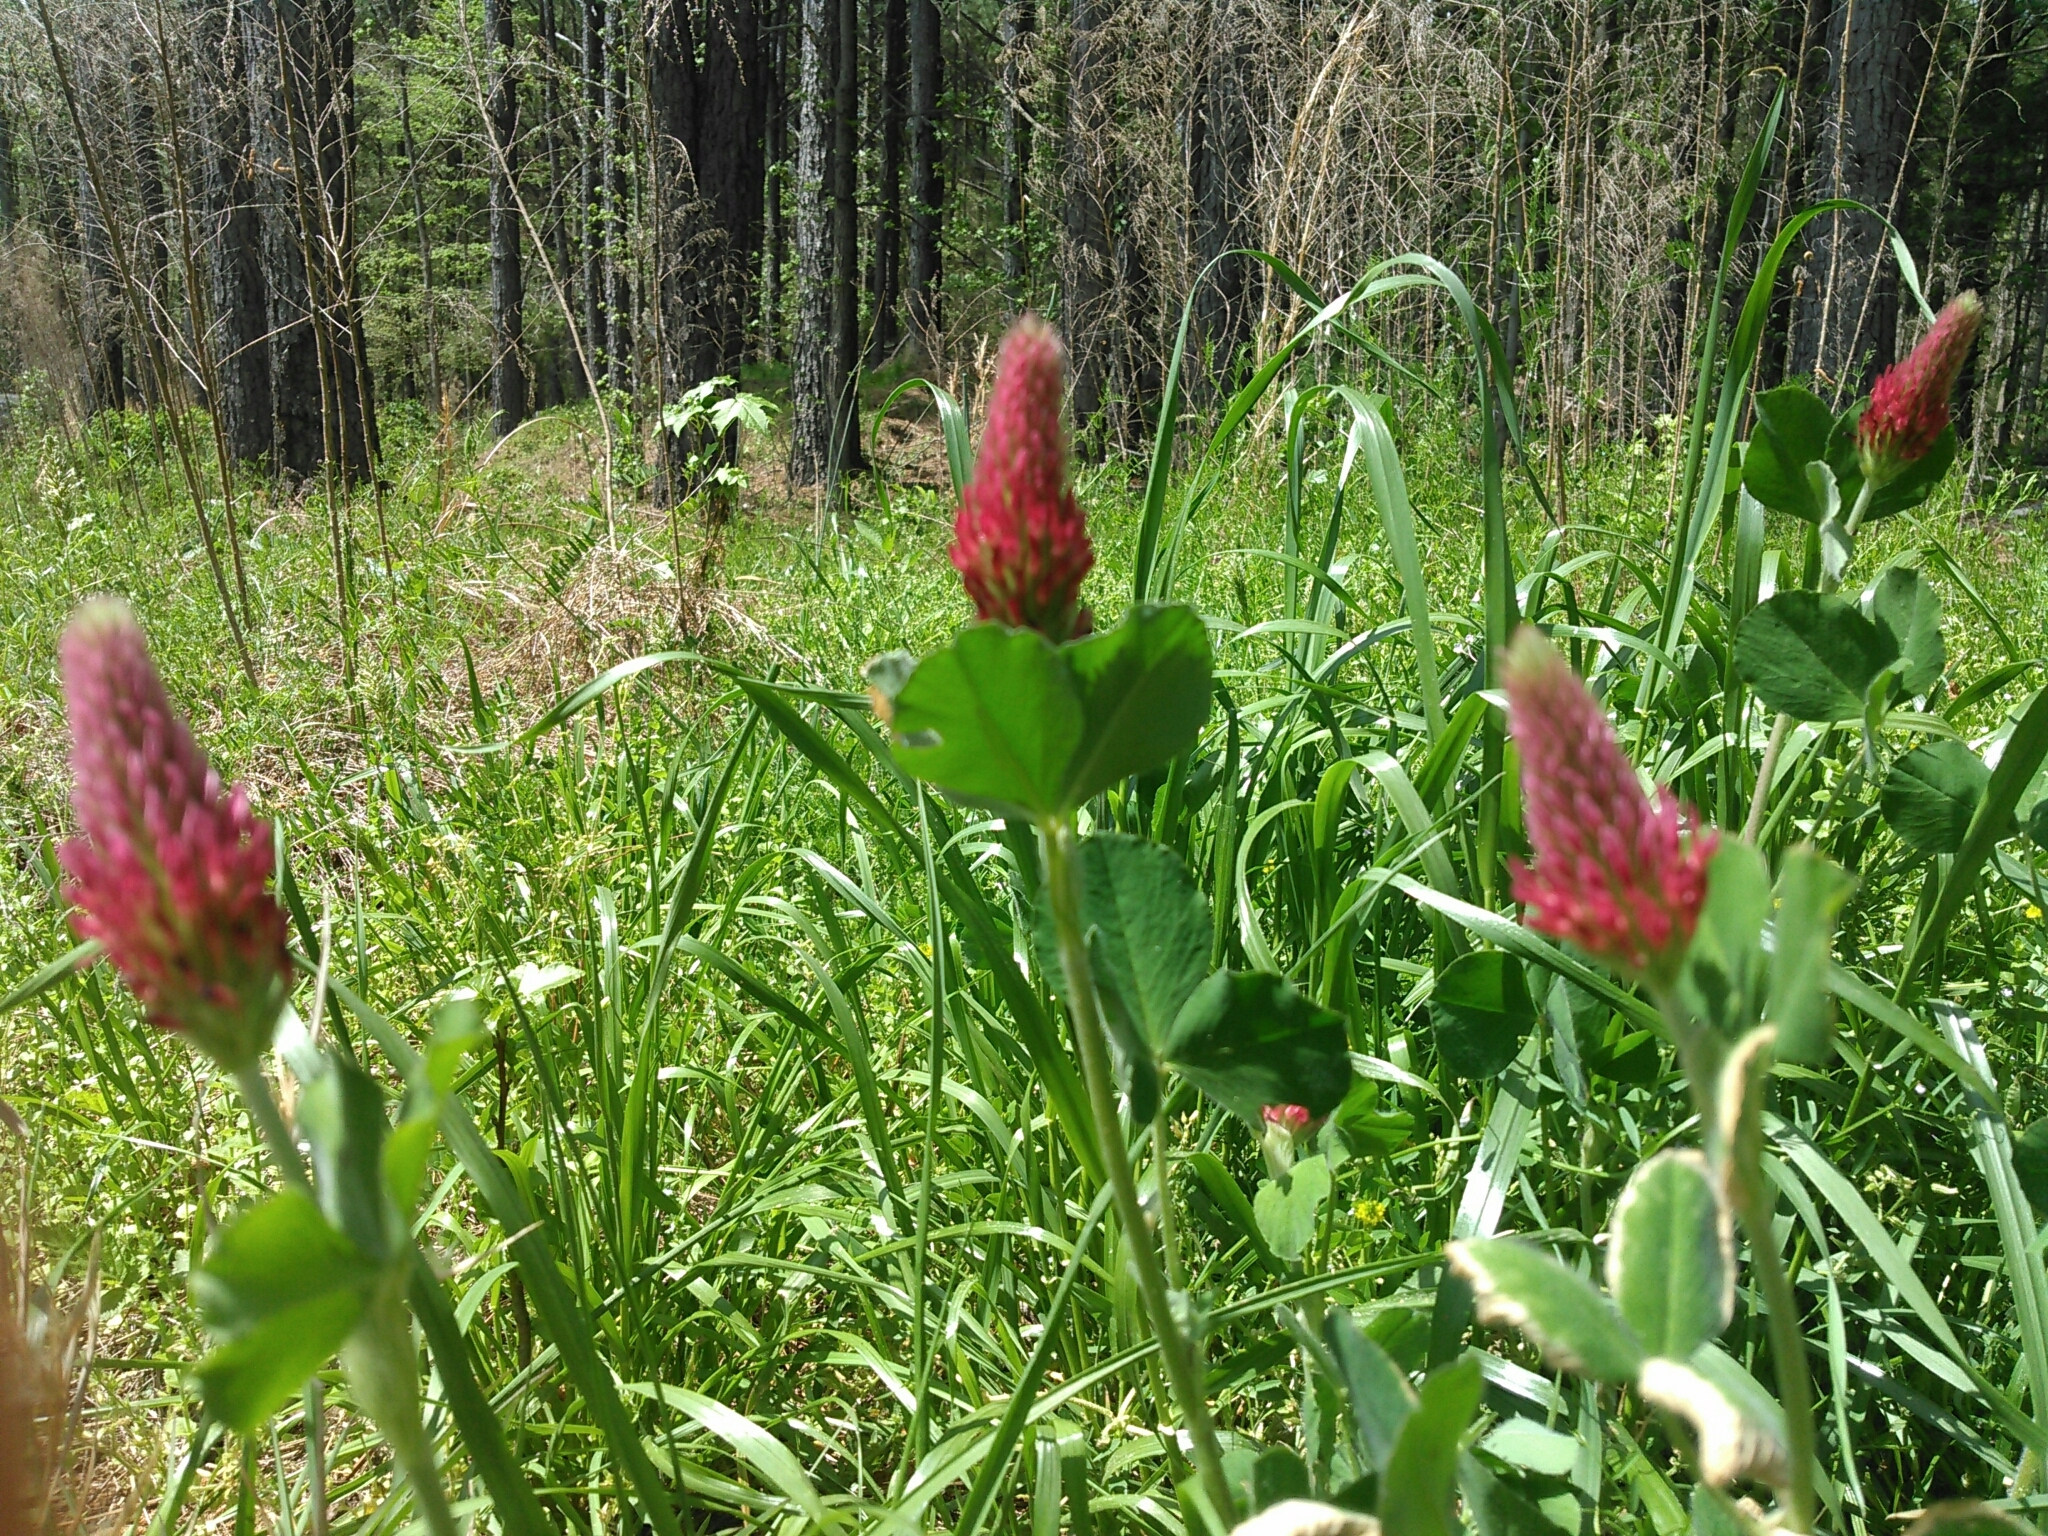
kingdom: Plantae
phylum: Tracheophyta
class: Magnoliopsida
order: Fabales
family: Fabaceae
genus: Trifolium
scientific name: Trifolium incarnatum
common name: Crimson clover
